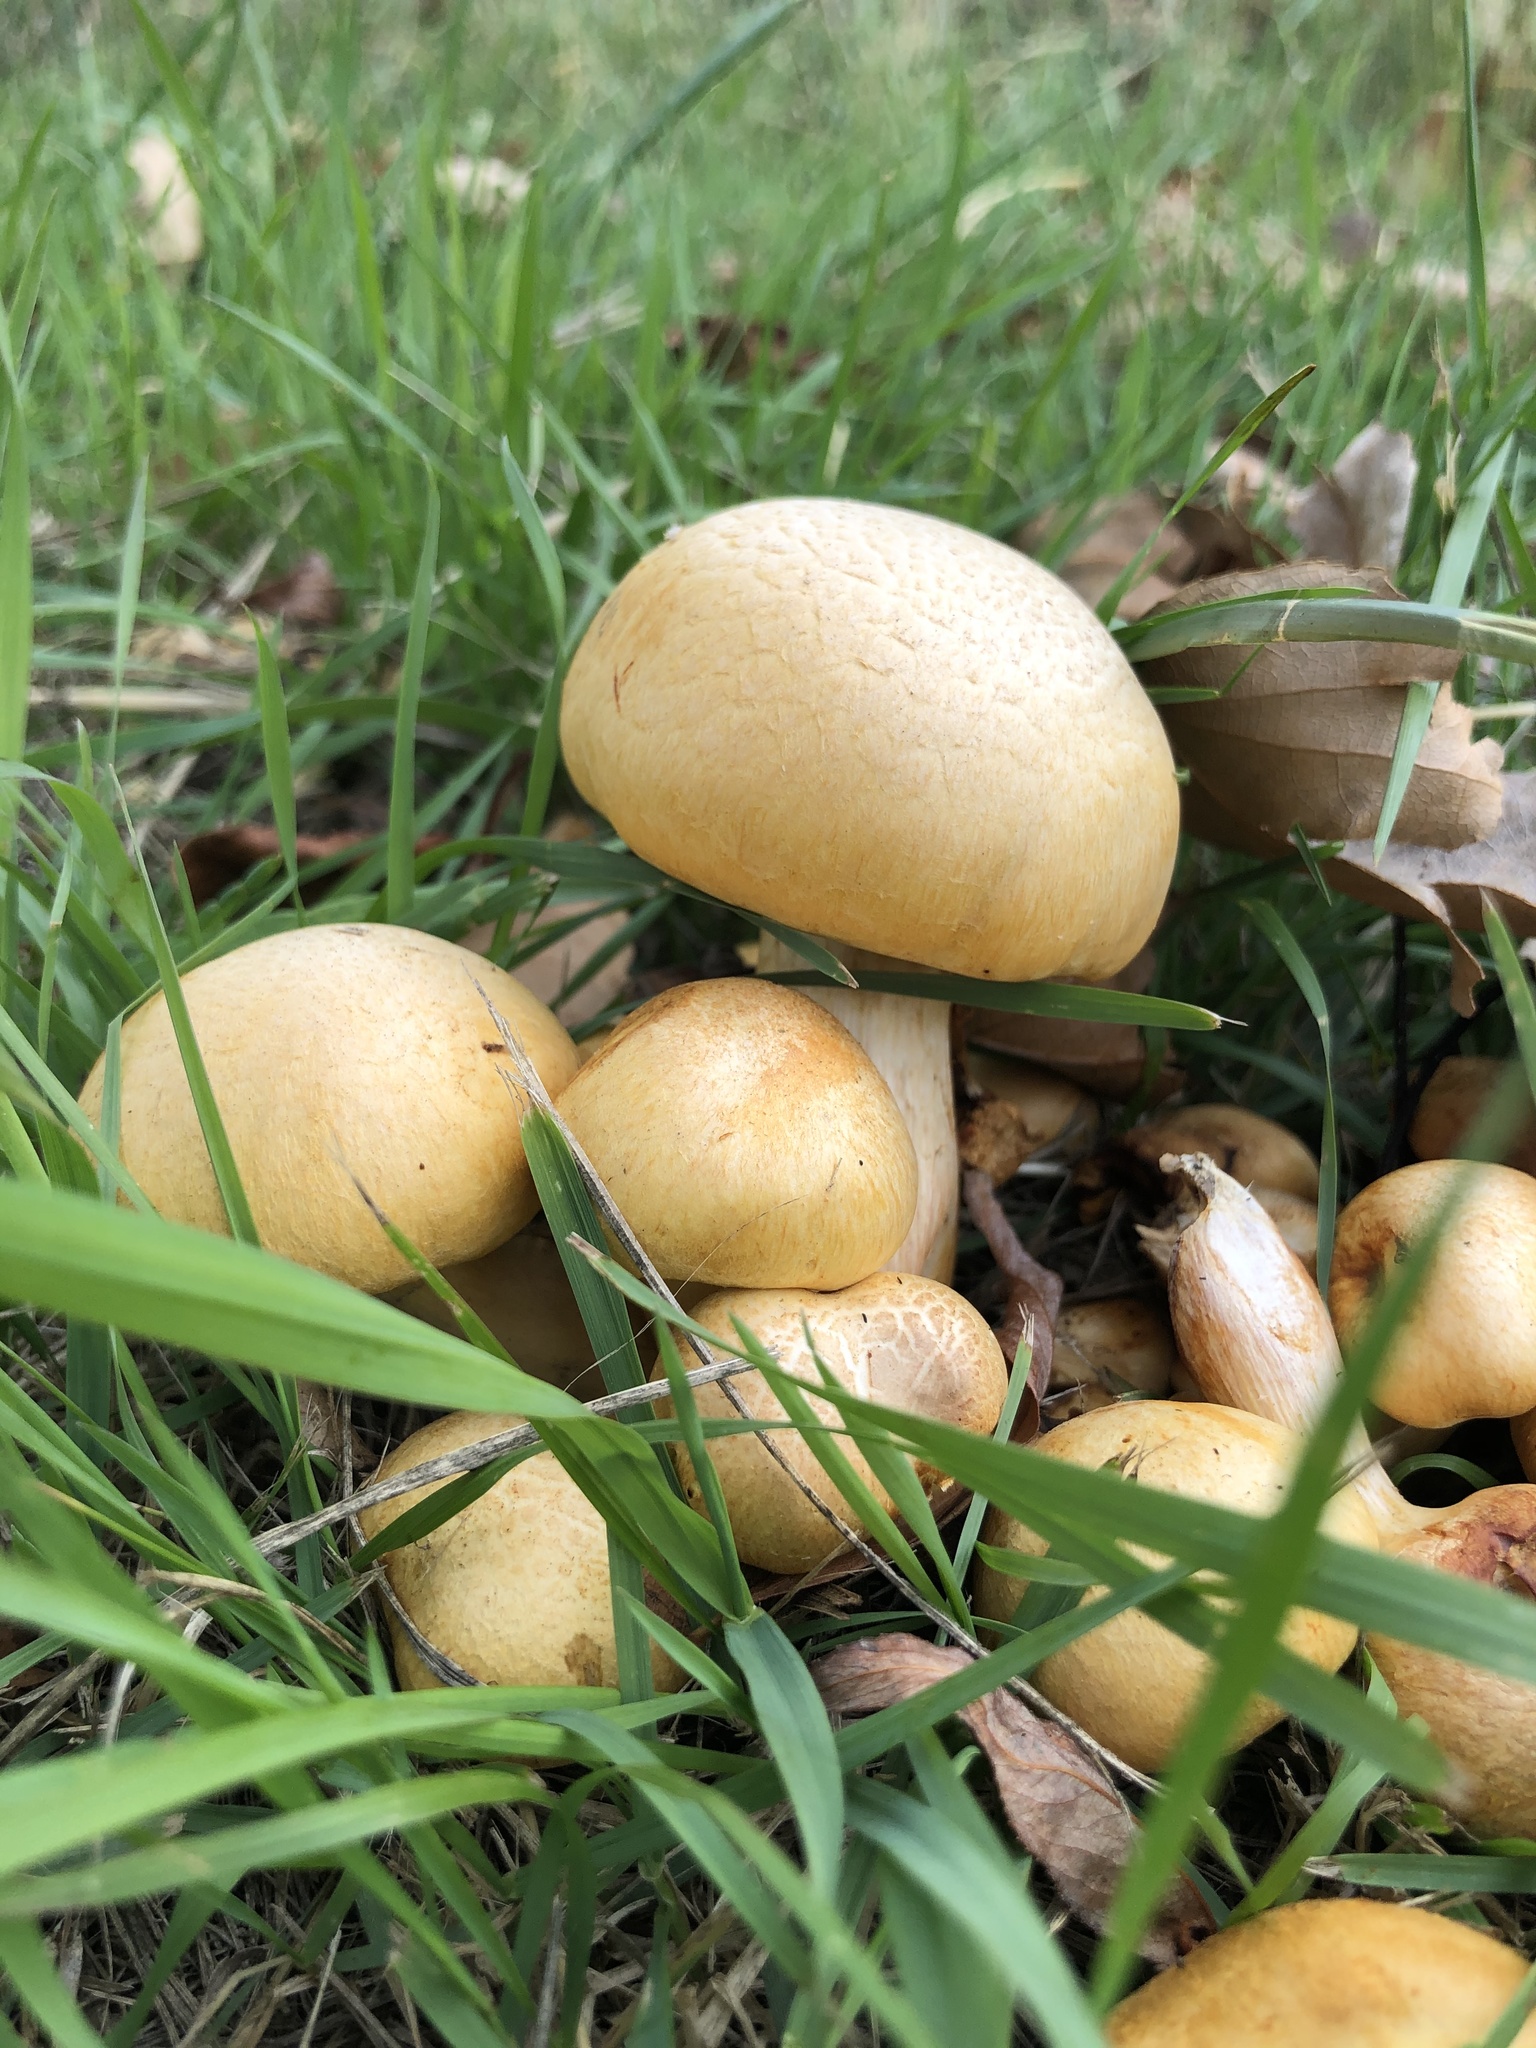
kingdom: Fungi
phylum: Basidiomycota
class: Agaricomycetes
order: Agaricales
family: Hymenogastraceae
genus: Gymnopilus
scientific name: Gymnopilus junonius
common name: Spectacular rustgill
